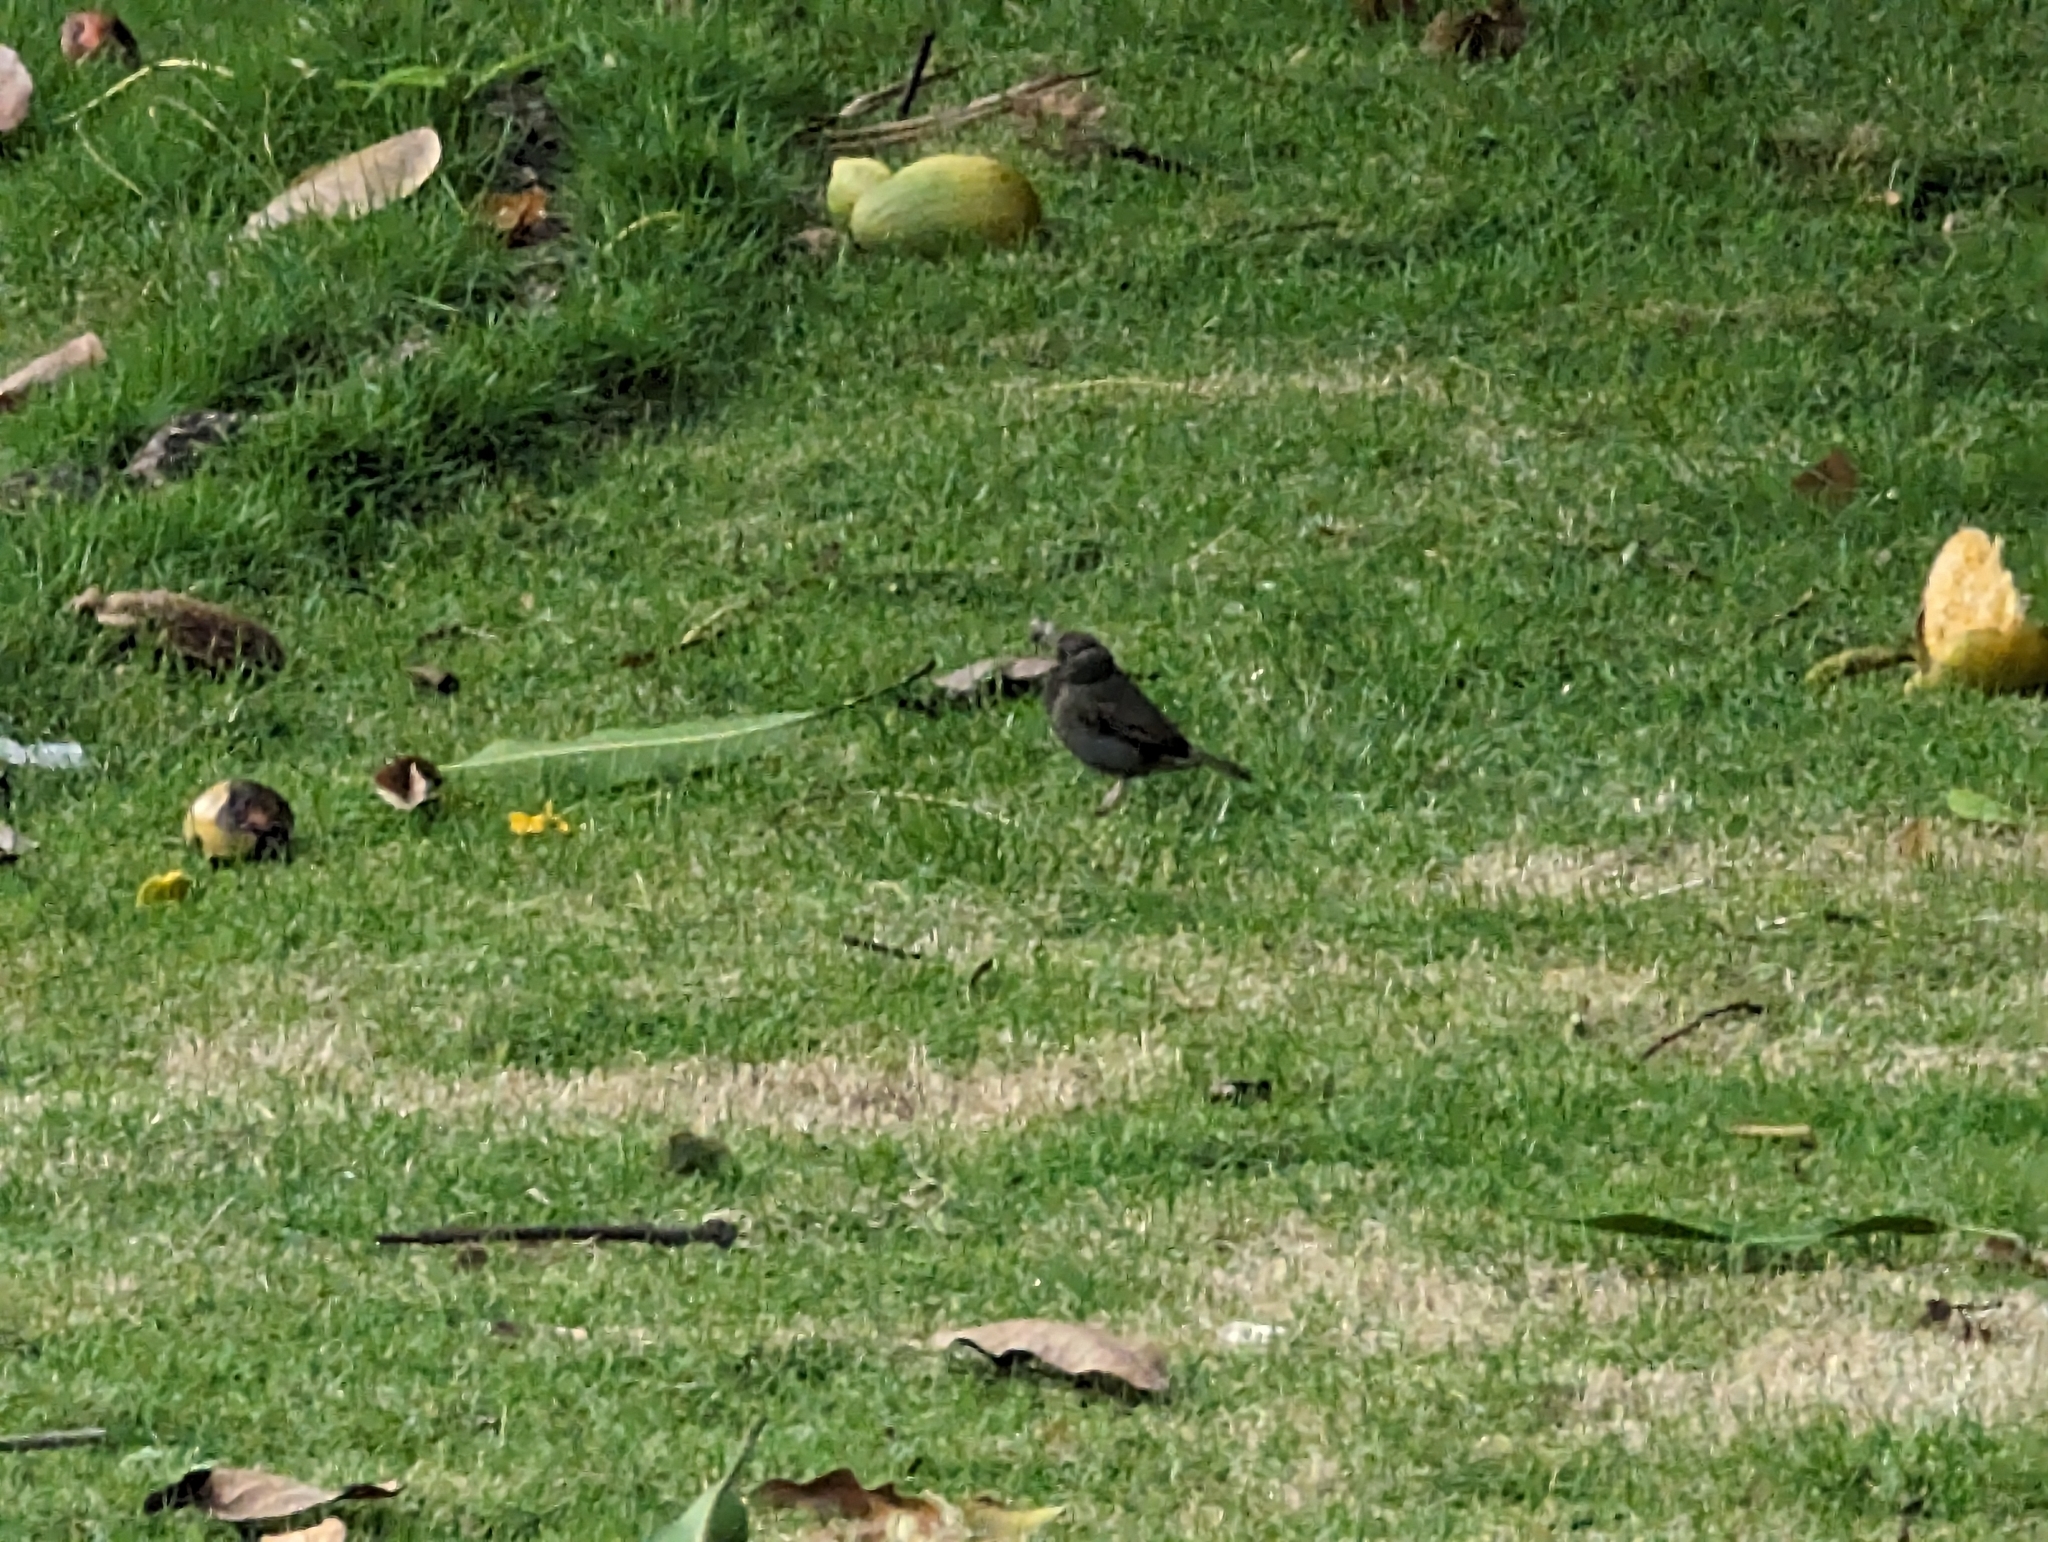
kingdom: Animalia
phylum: Chordata
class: Aves
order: Passeriformes
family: Thraupidae
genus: Melanospiza
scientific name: Melanospiza bicolor
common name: Black-faced grassquit
